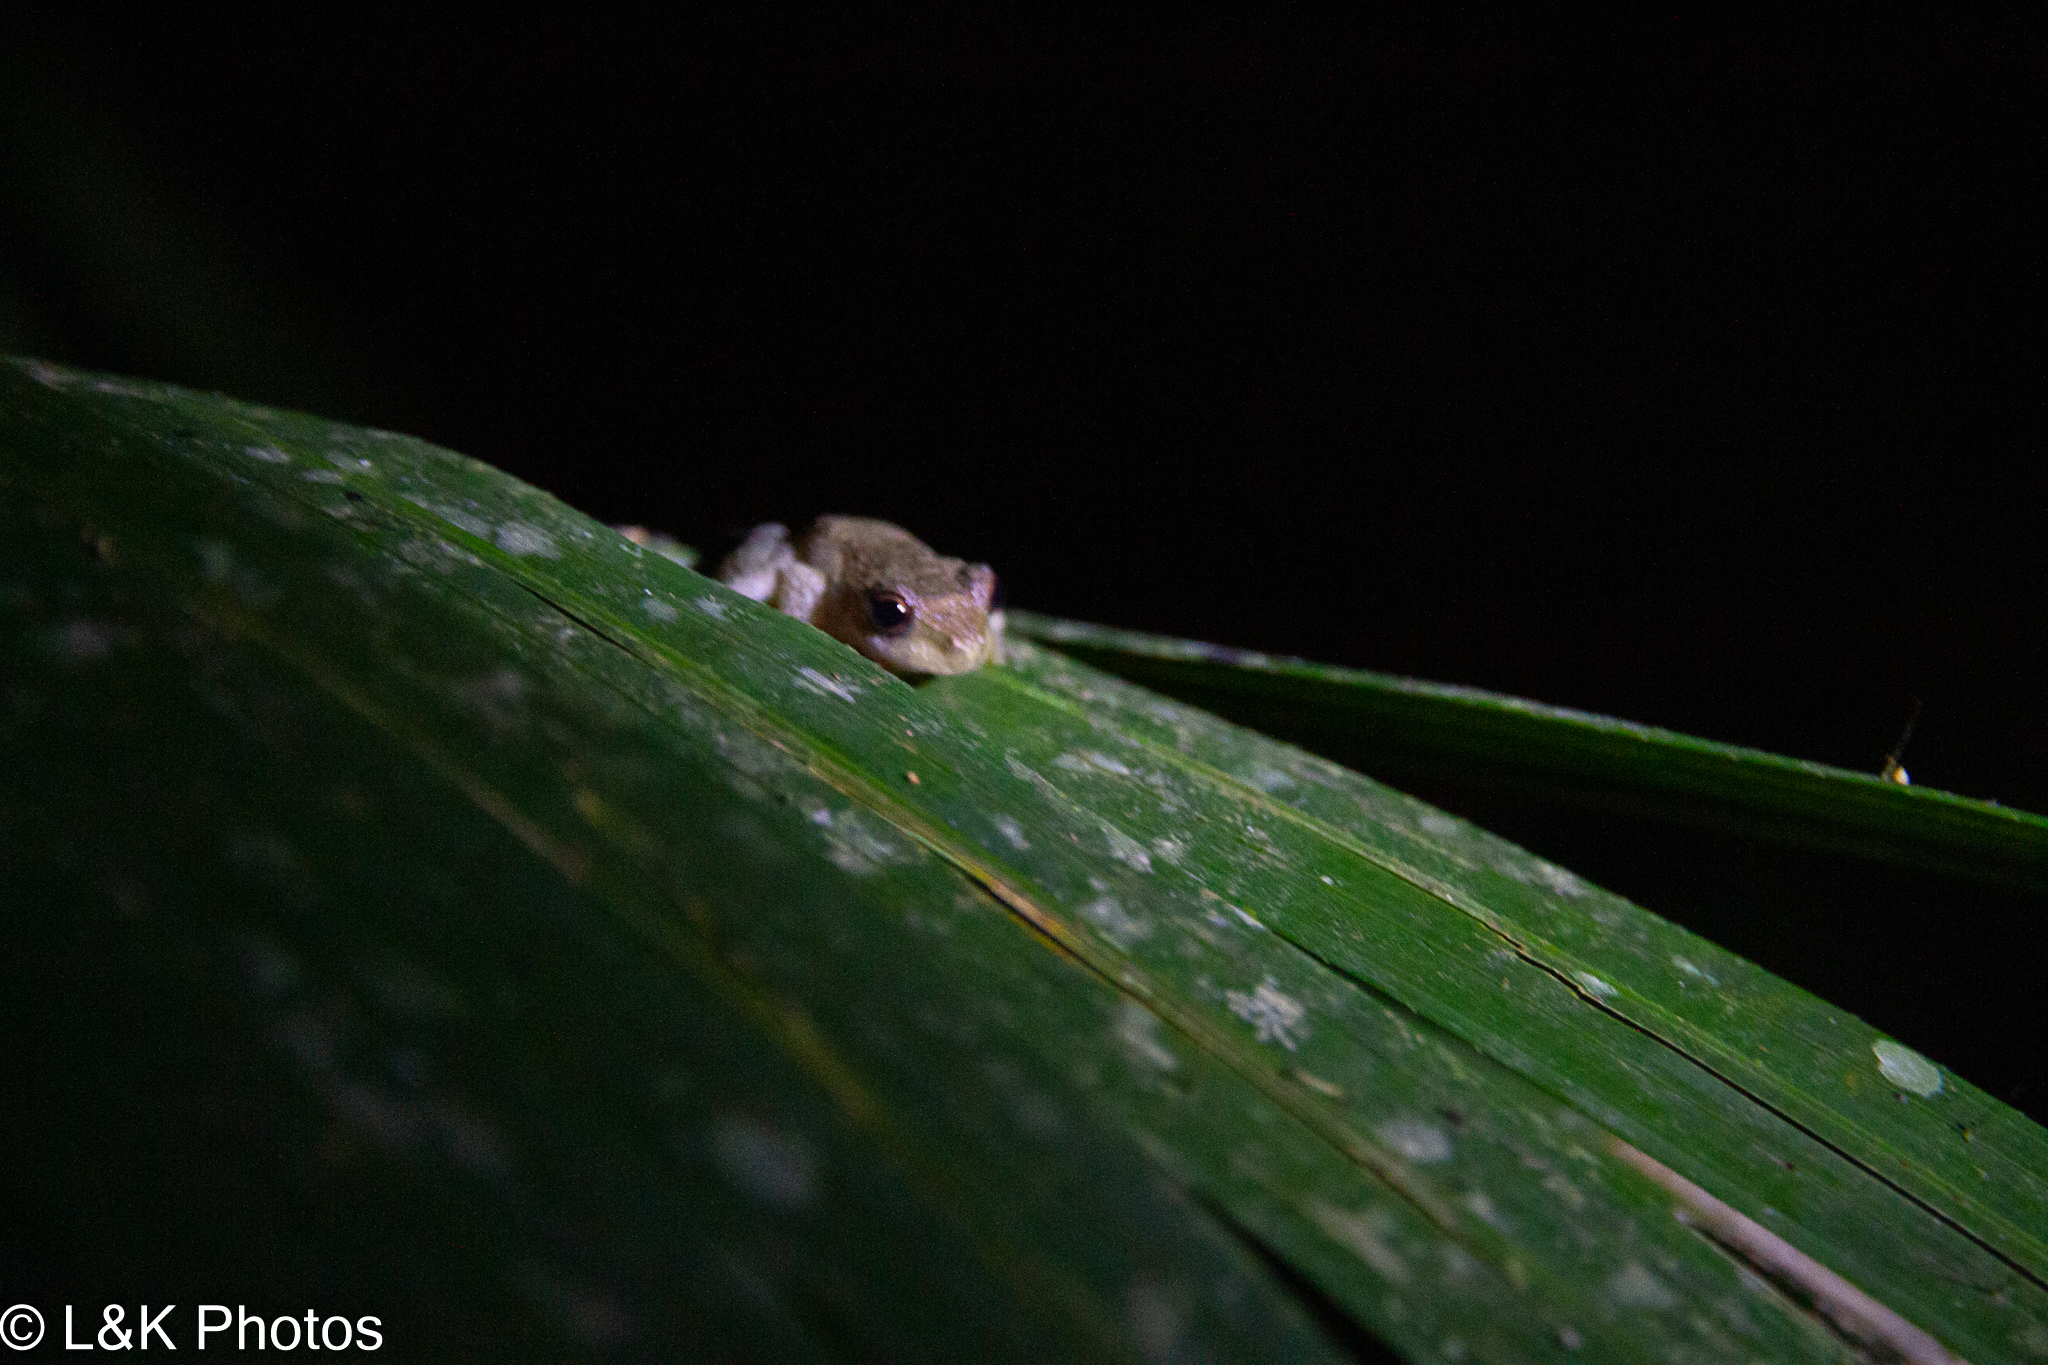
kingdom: Animalia
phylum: Chordata
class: Amphibia
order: Anura
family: Pelodryadidae
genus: Ranoidea
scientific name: Ranoidea rheocola
